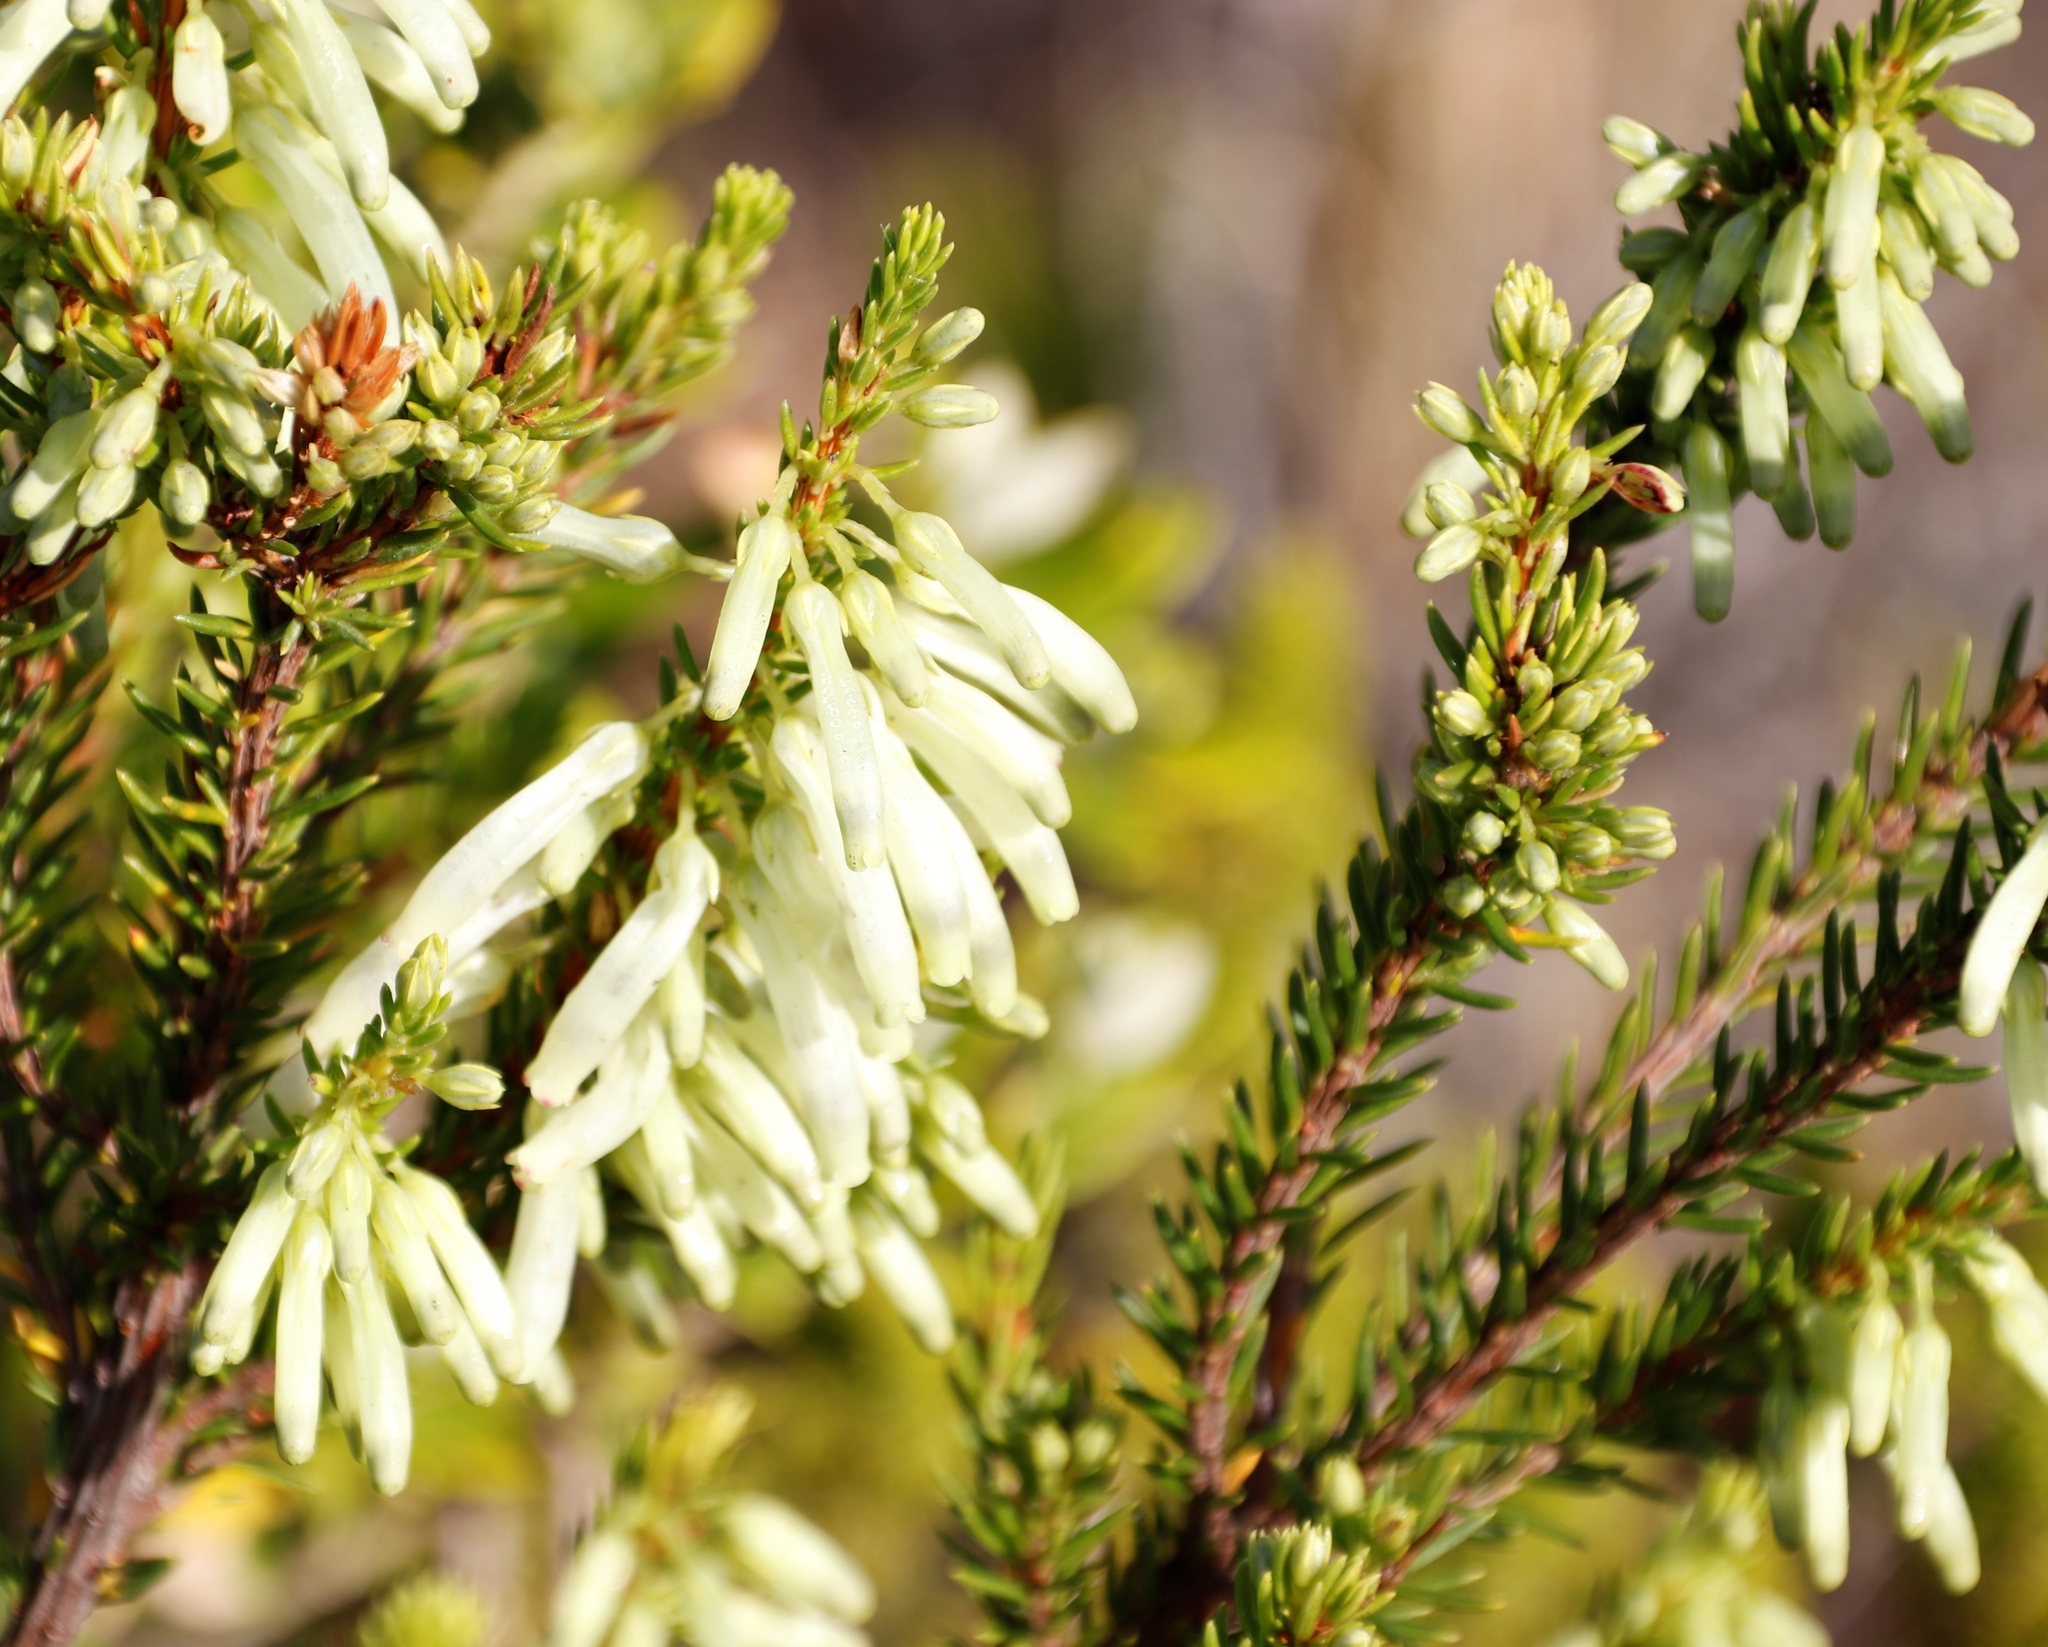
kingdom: Plantae
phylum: Tracheophyta
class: Magnoliopsida
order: Ericales
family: Ericaceae
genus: Erica
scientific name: Erica mammosa
